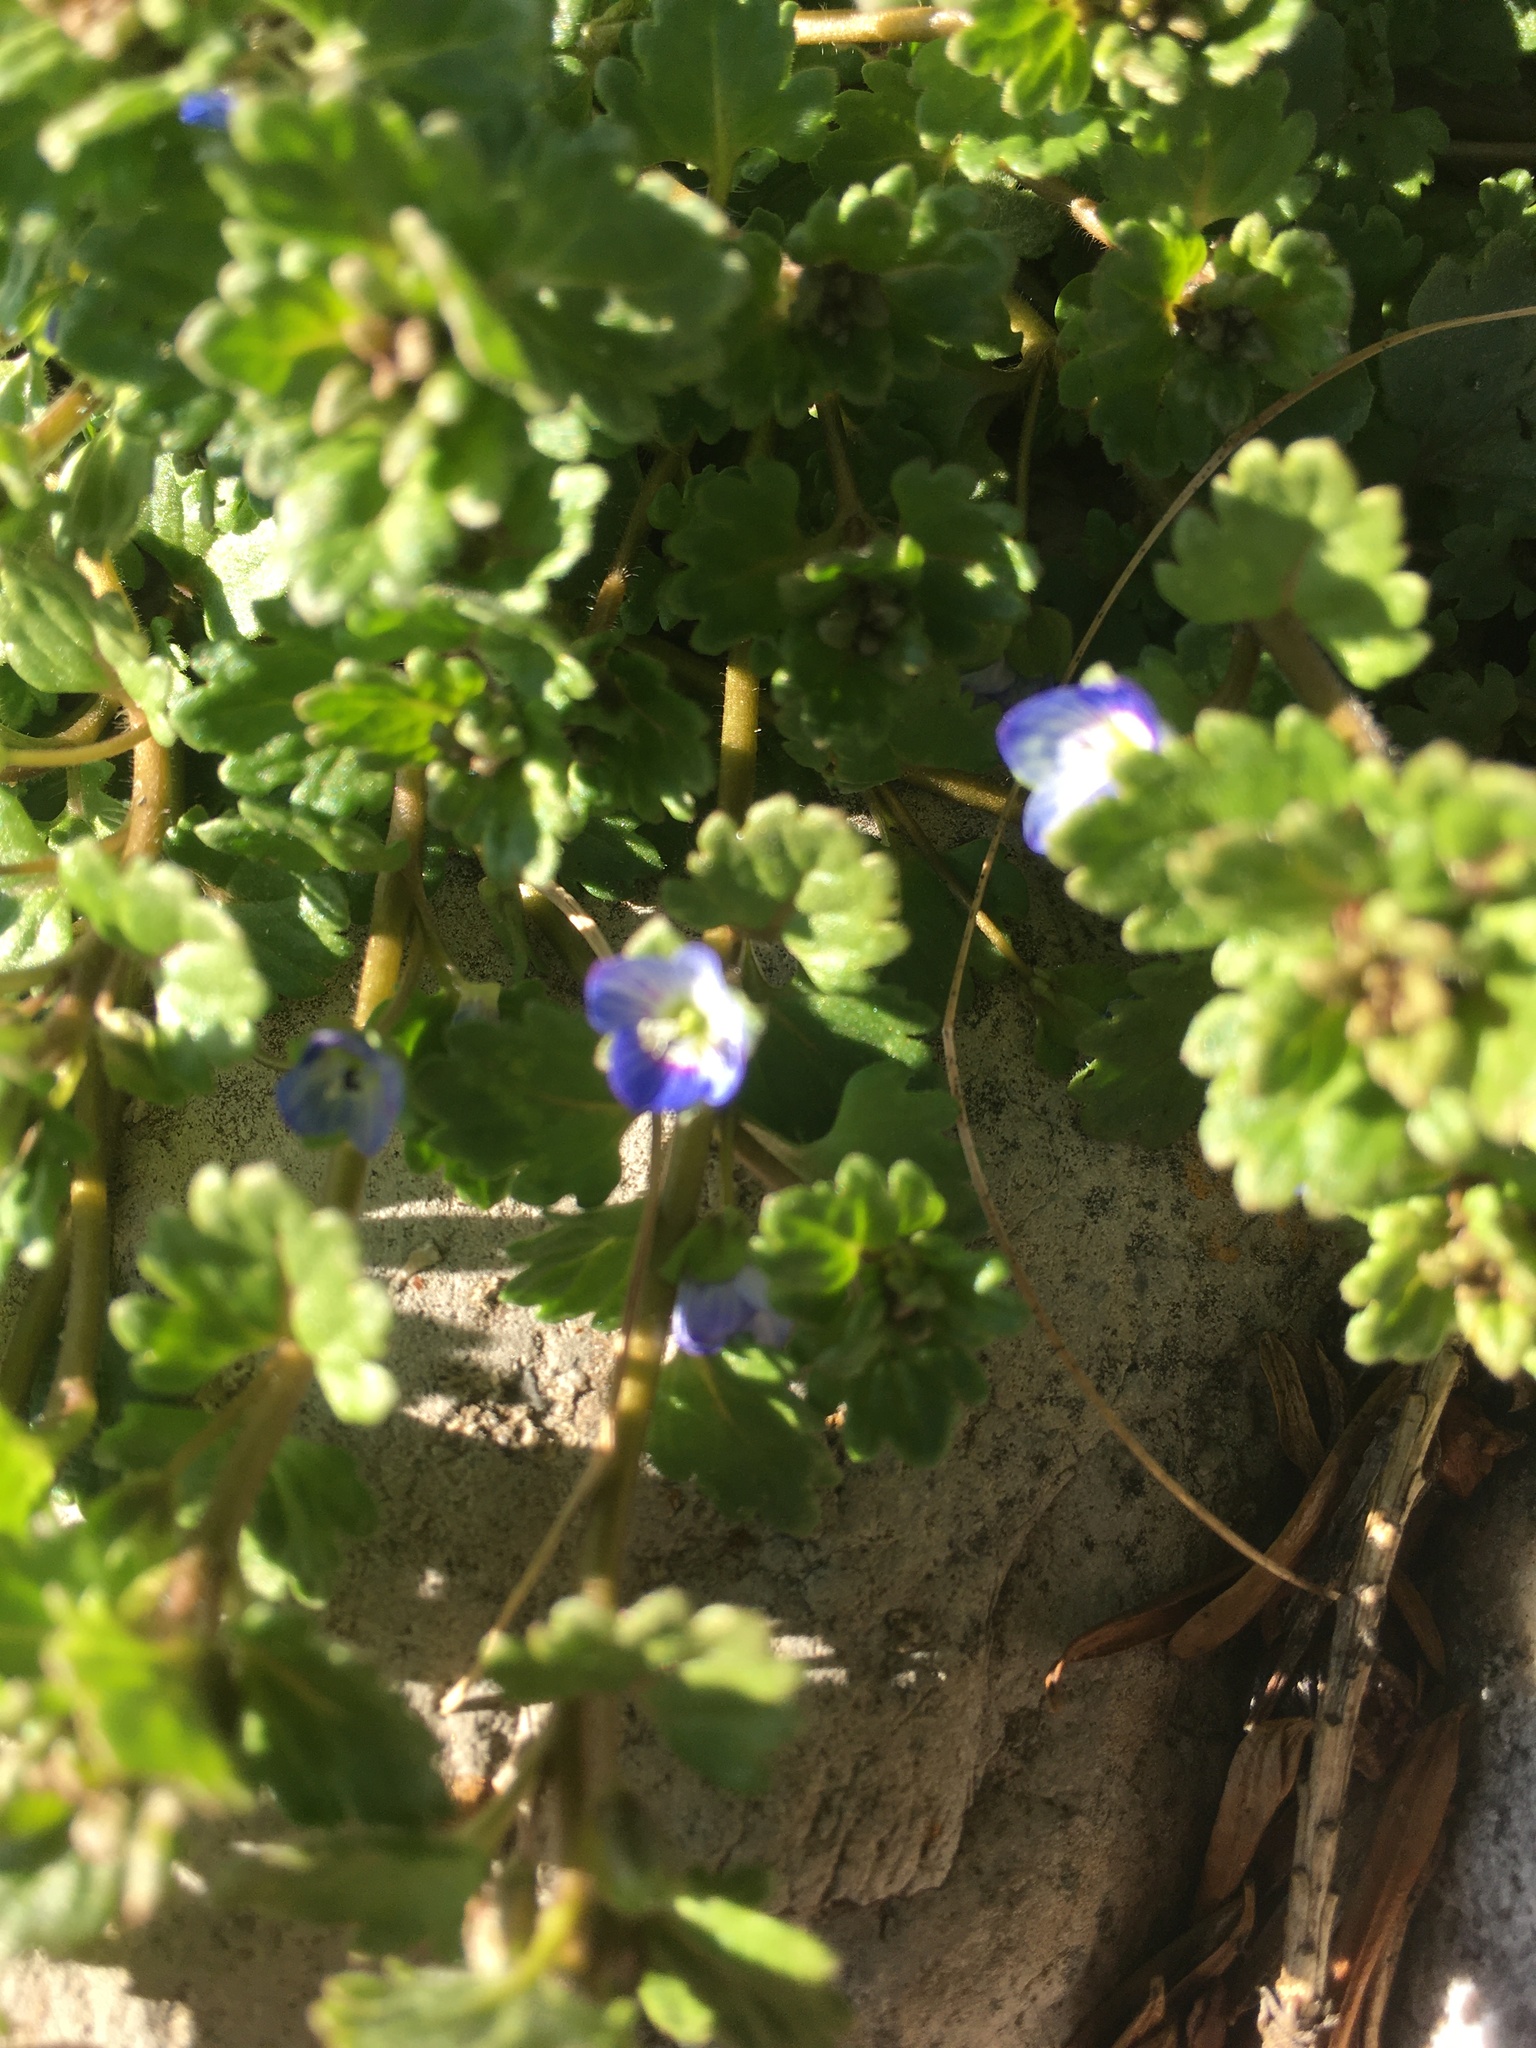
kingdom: Plantae
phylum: Tracheophyta
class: Magnoliopsida
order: Lamiales
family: Plantaginaceae
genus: Veronica
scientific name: Veronica persica
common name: Common field-speedwell
